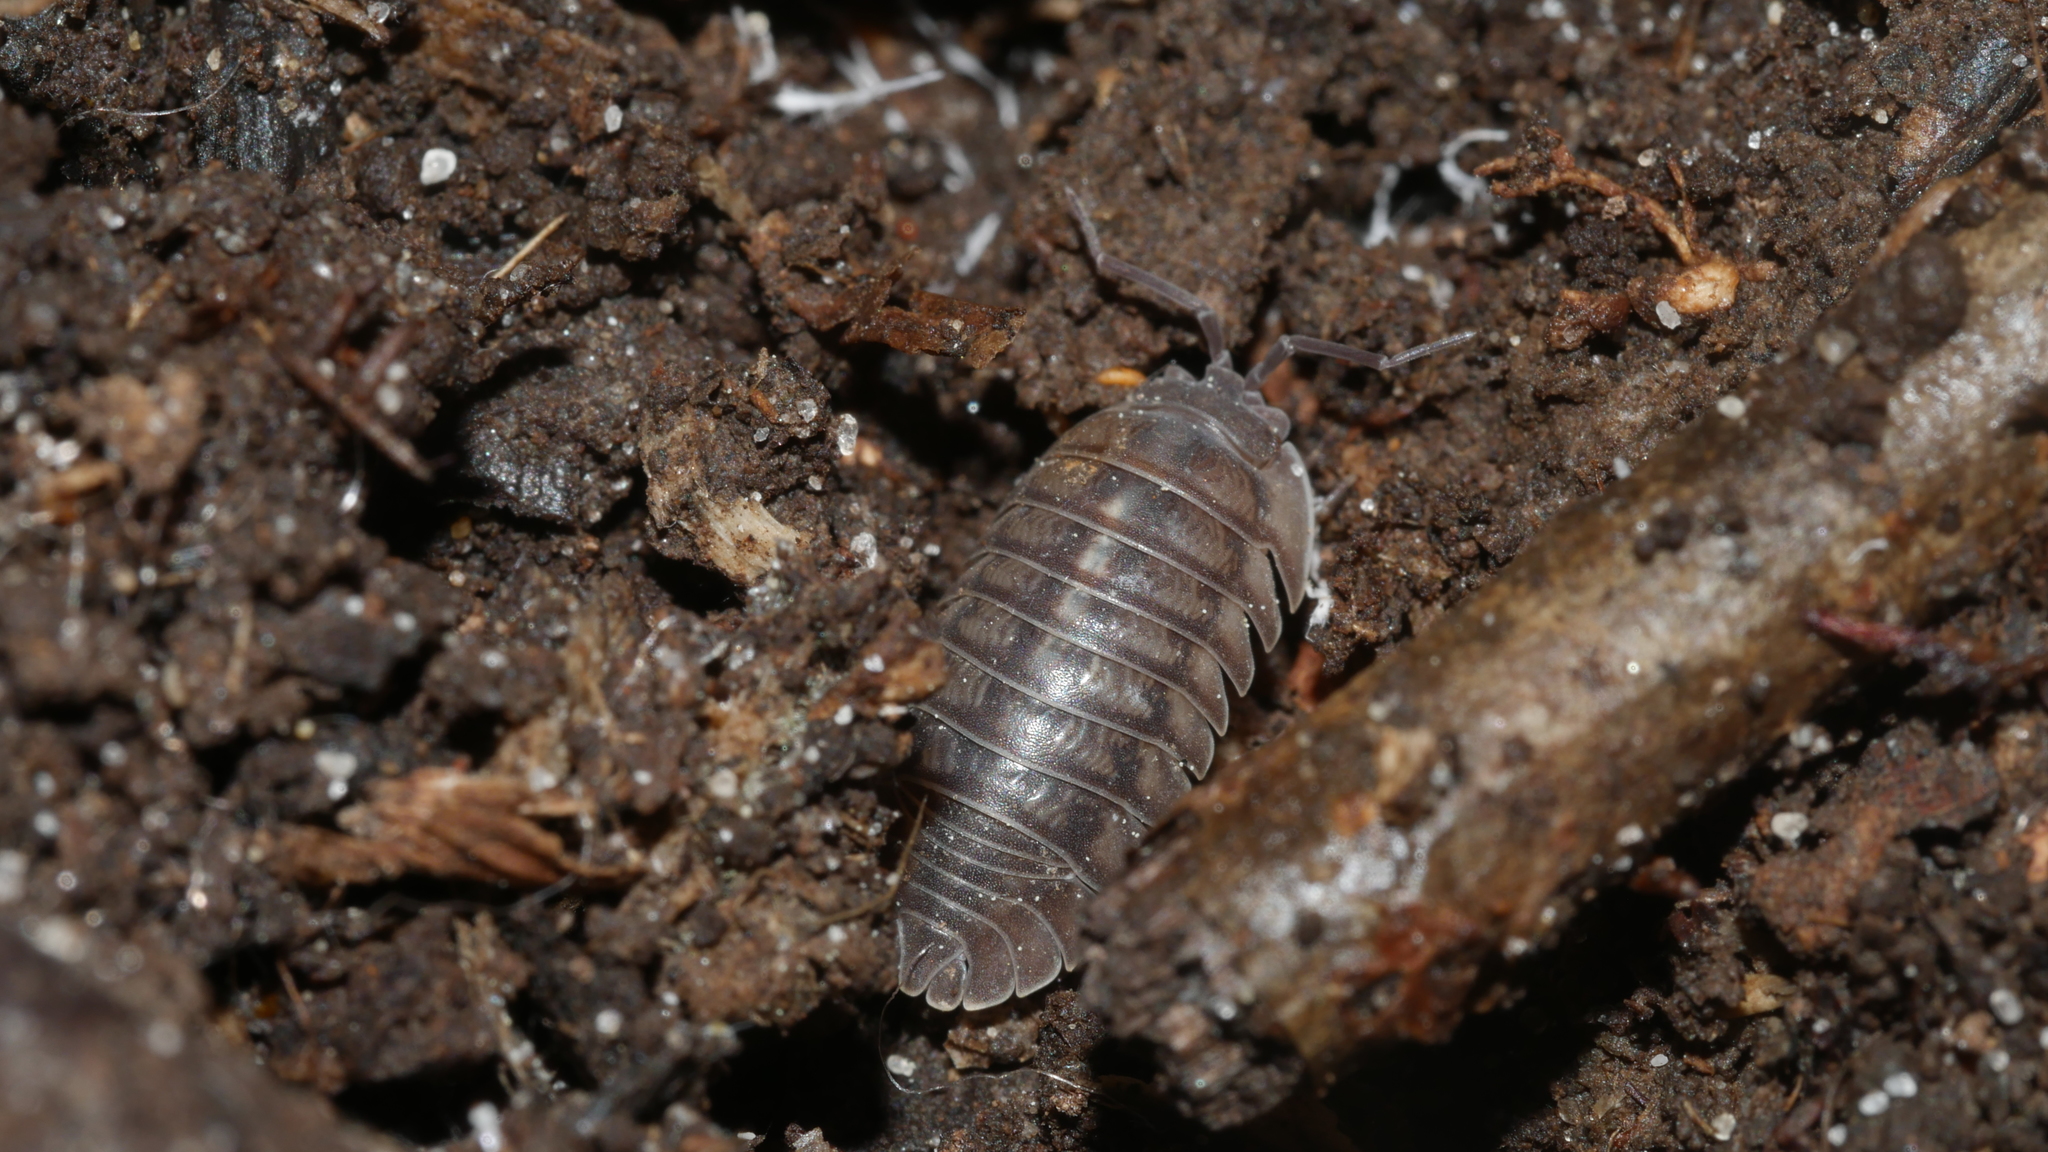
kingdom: Animalia
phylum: Arthropoda
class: Malacostraca
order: Isopoda
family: Armadillidiidae
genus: Armadillidium
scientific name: Armadillidium nasatum
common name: Isopod
